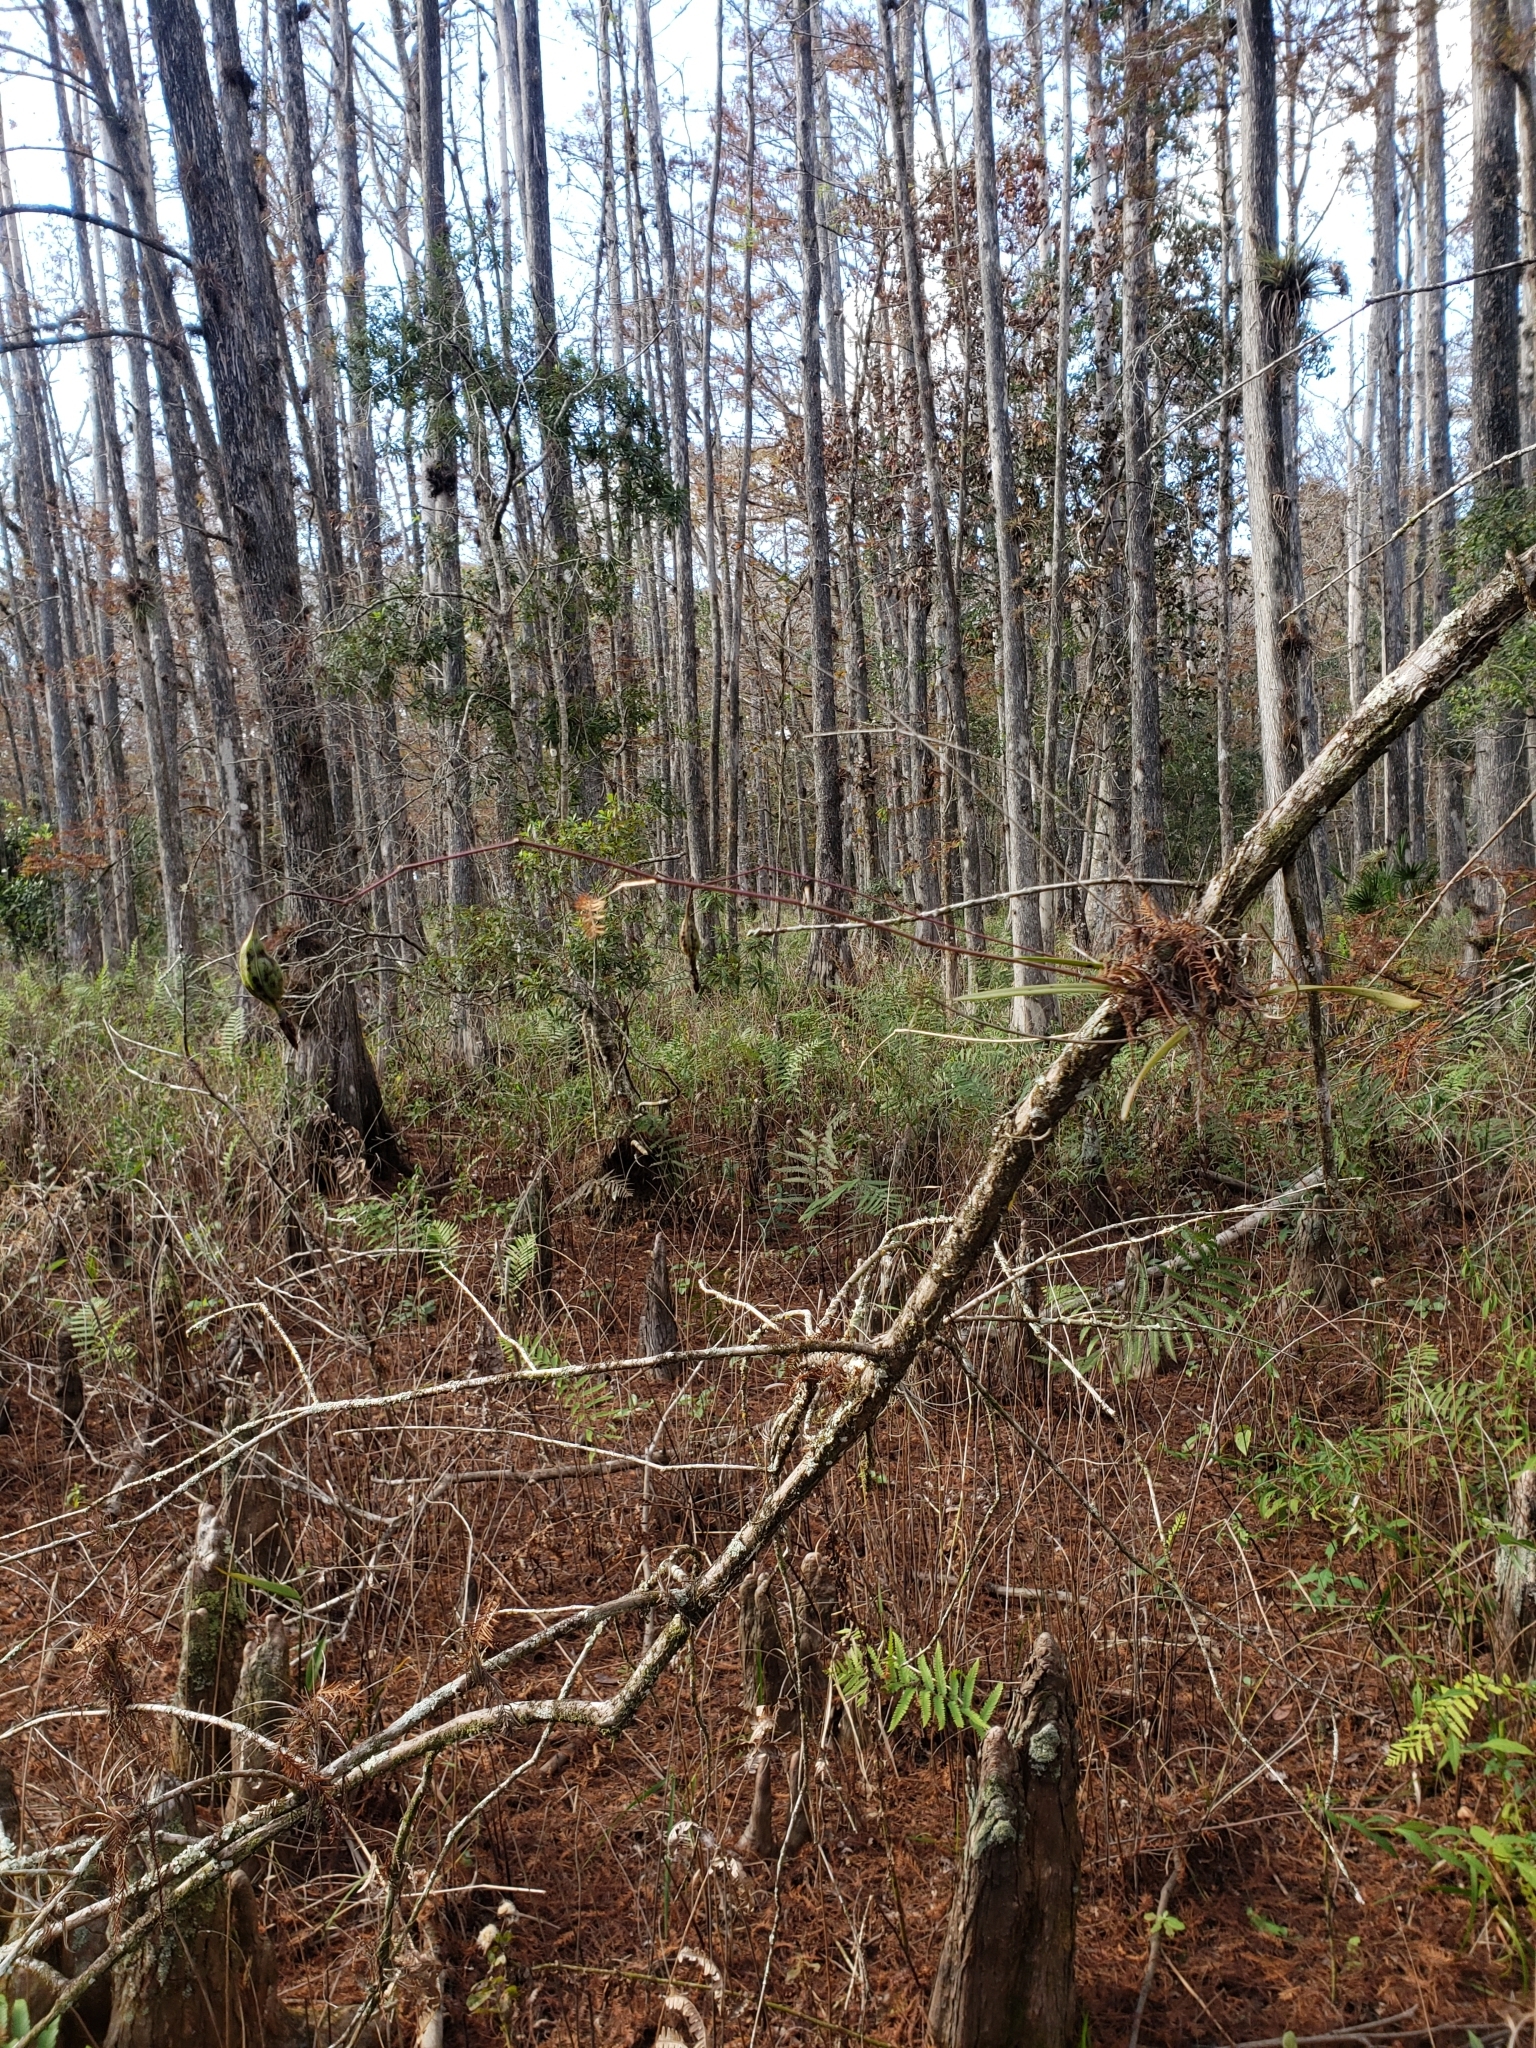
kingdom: Plantae
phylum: Tracheophyta
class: Liliopsida
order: Asparagales
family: Orchidaceae
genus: Encyclia
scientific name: Encyclia tampensis
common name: Florida butterfly orchid
